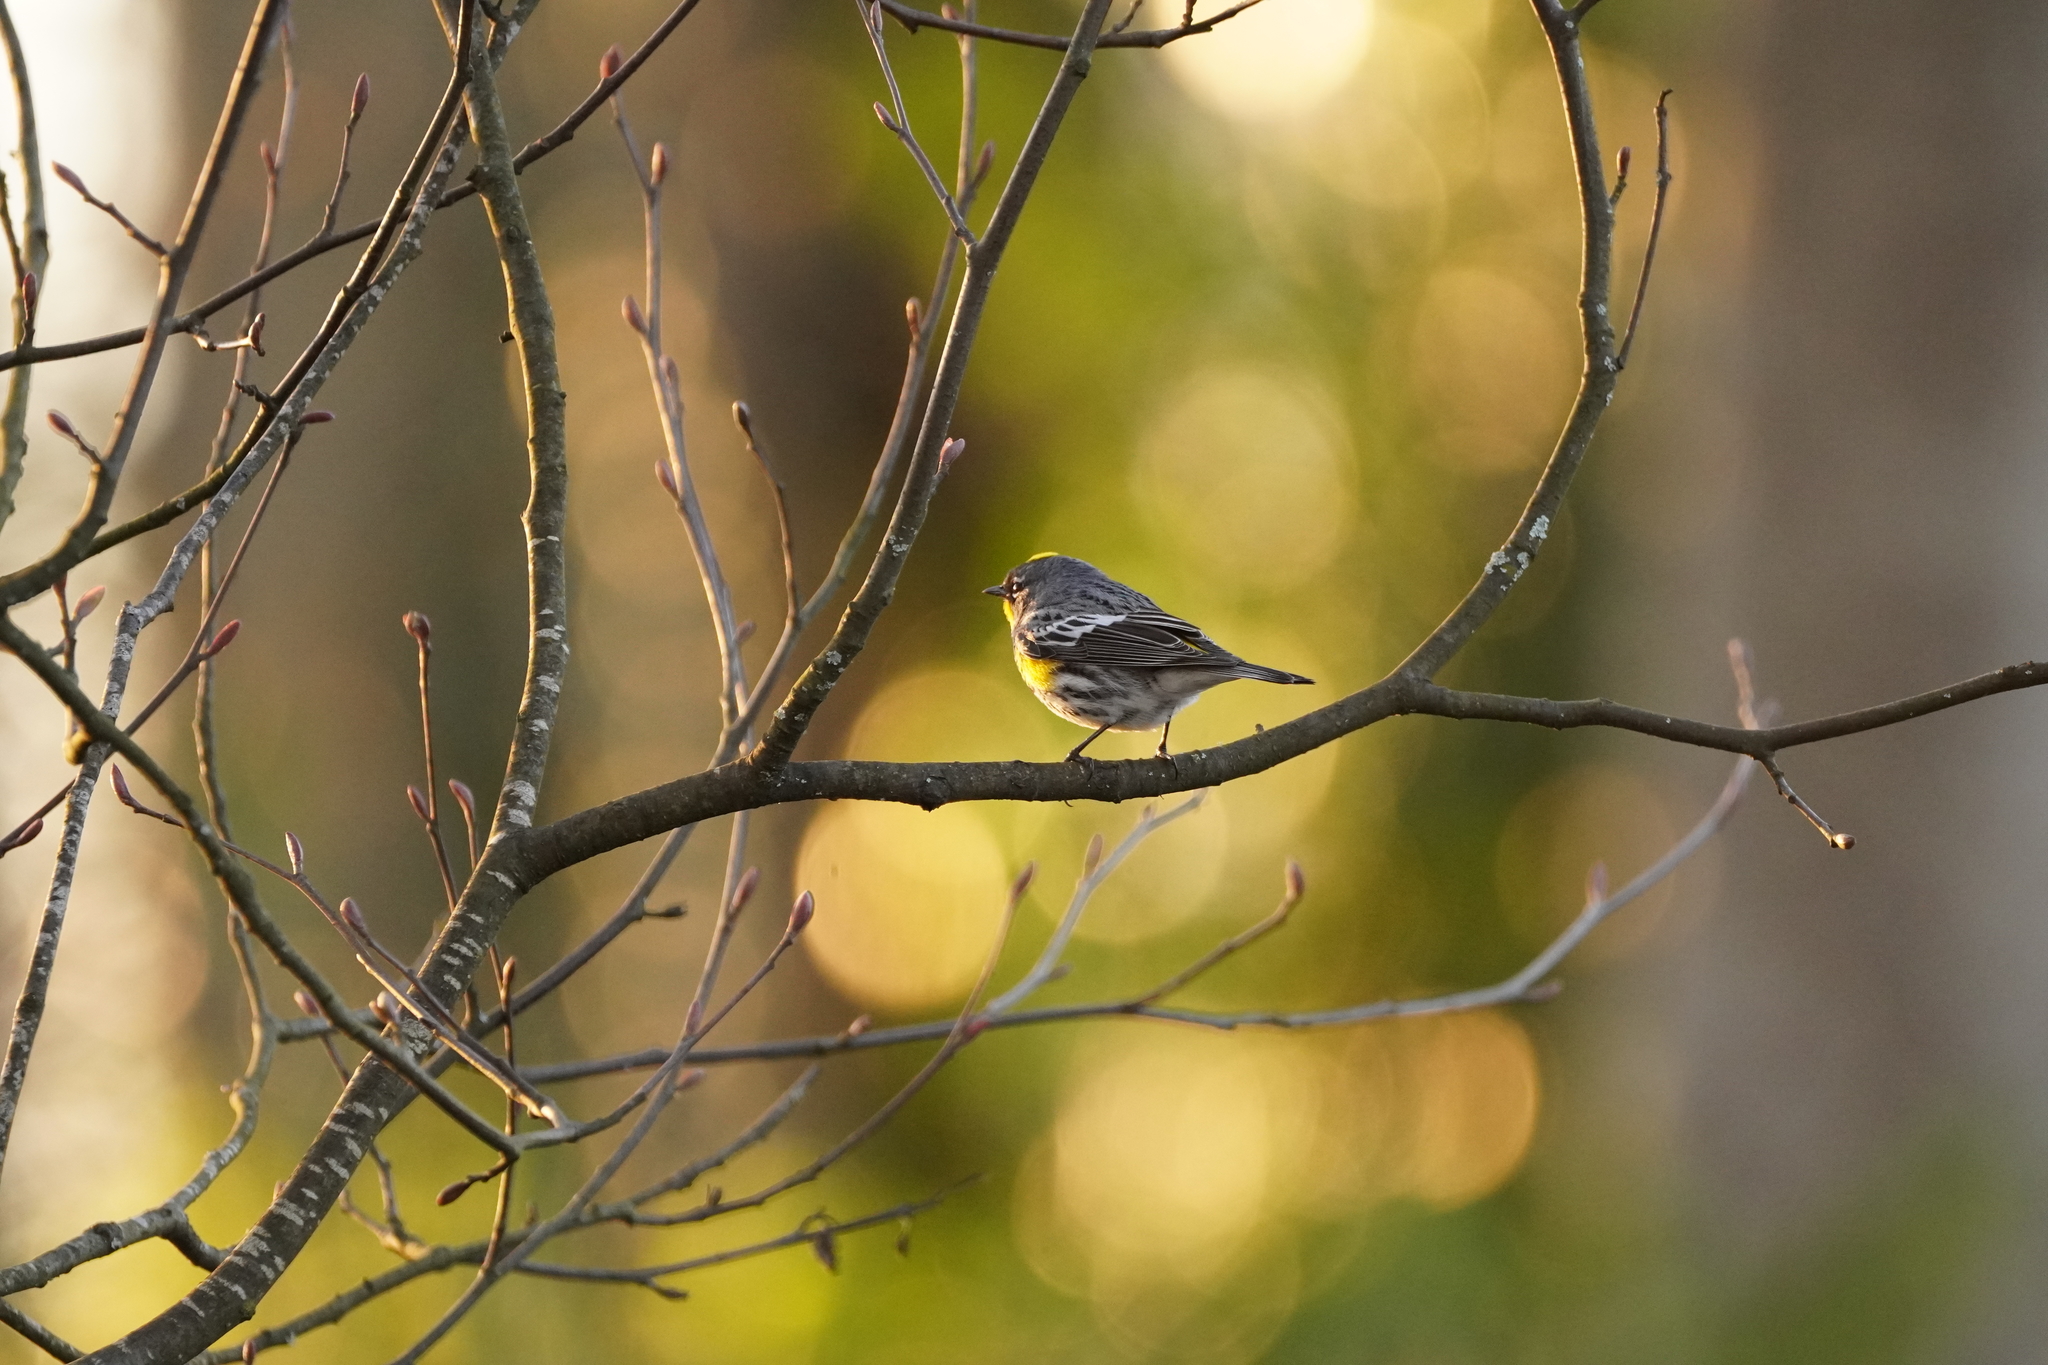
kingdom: Animalia
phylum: Chordata
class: Aves
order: Passeriformes
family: Parulidae
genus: Setophaga
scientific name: Setophaga coronata
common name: Myrtle warbler
